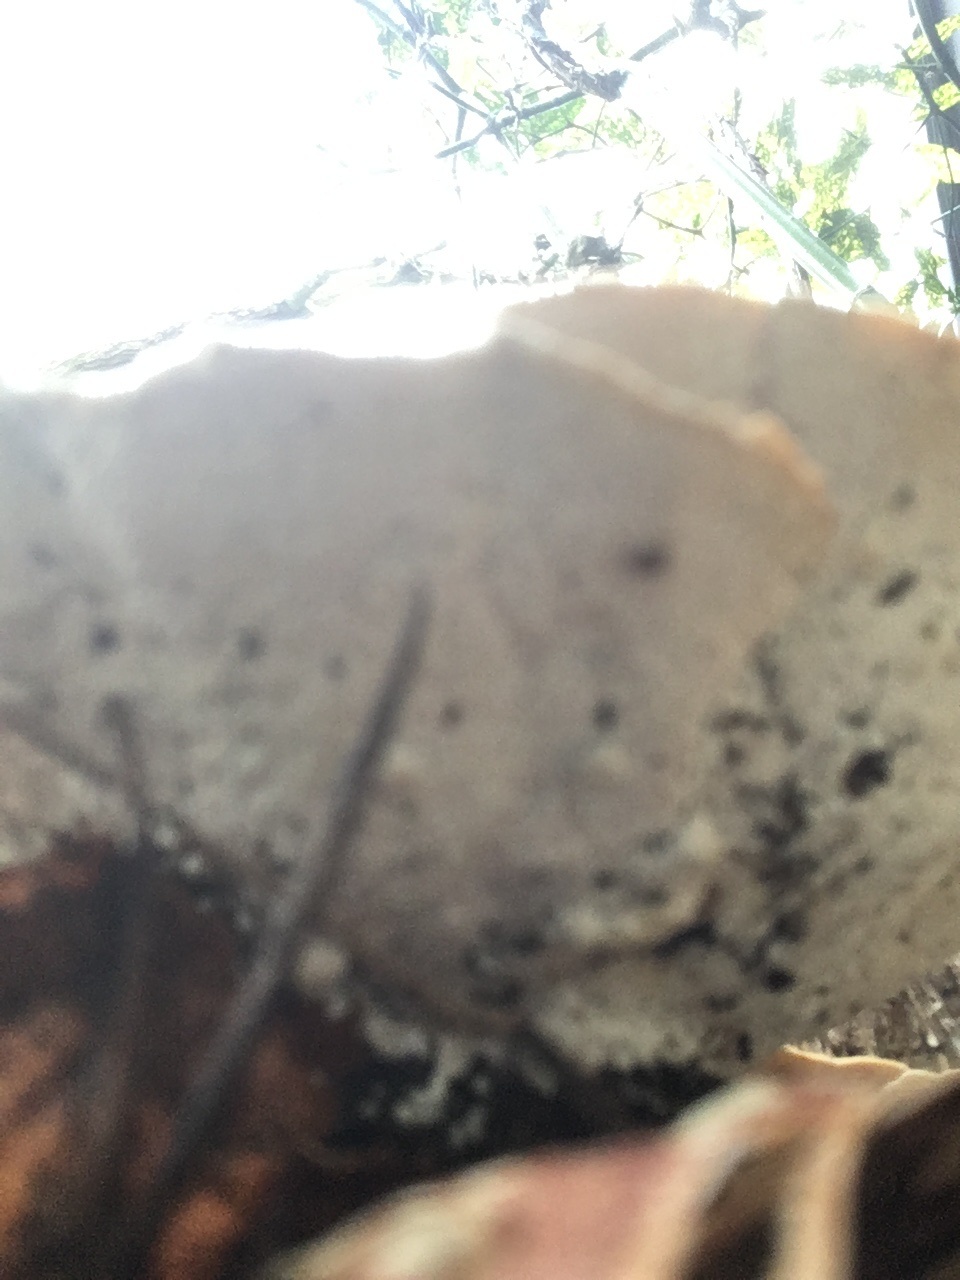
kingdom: Fungi
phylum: Basidiomycota
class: Agaricomycetes
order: Polyporales
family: Polyporaceae
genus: Trametes
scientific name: Trametes versicolor
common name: Turkeytail
